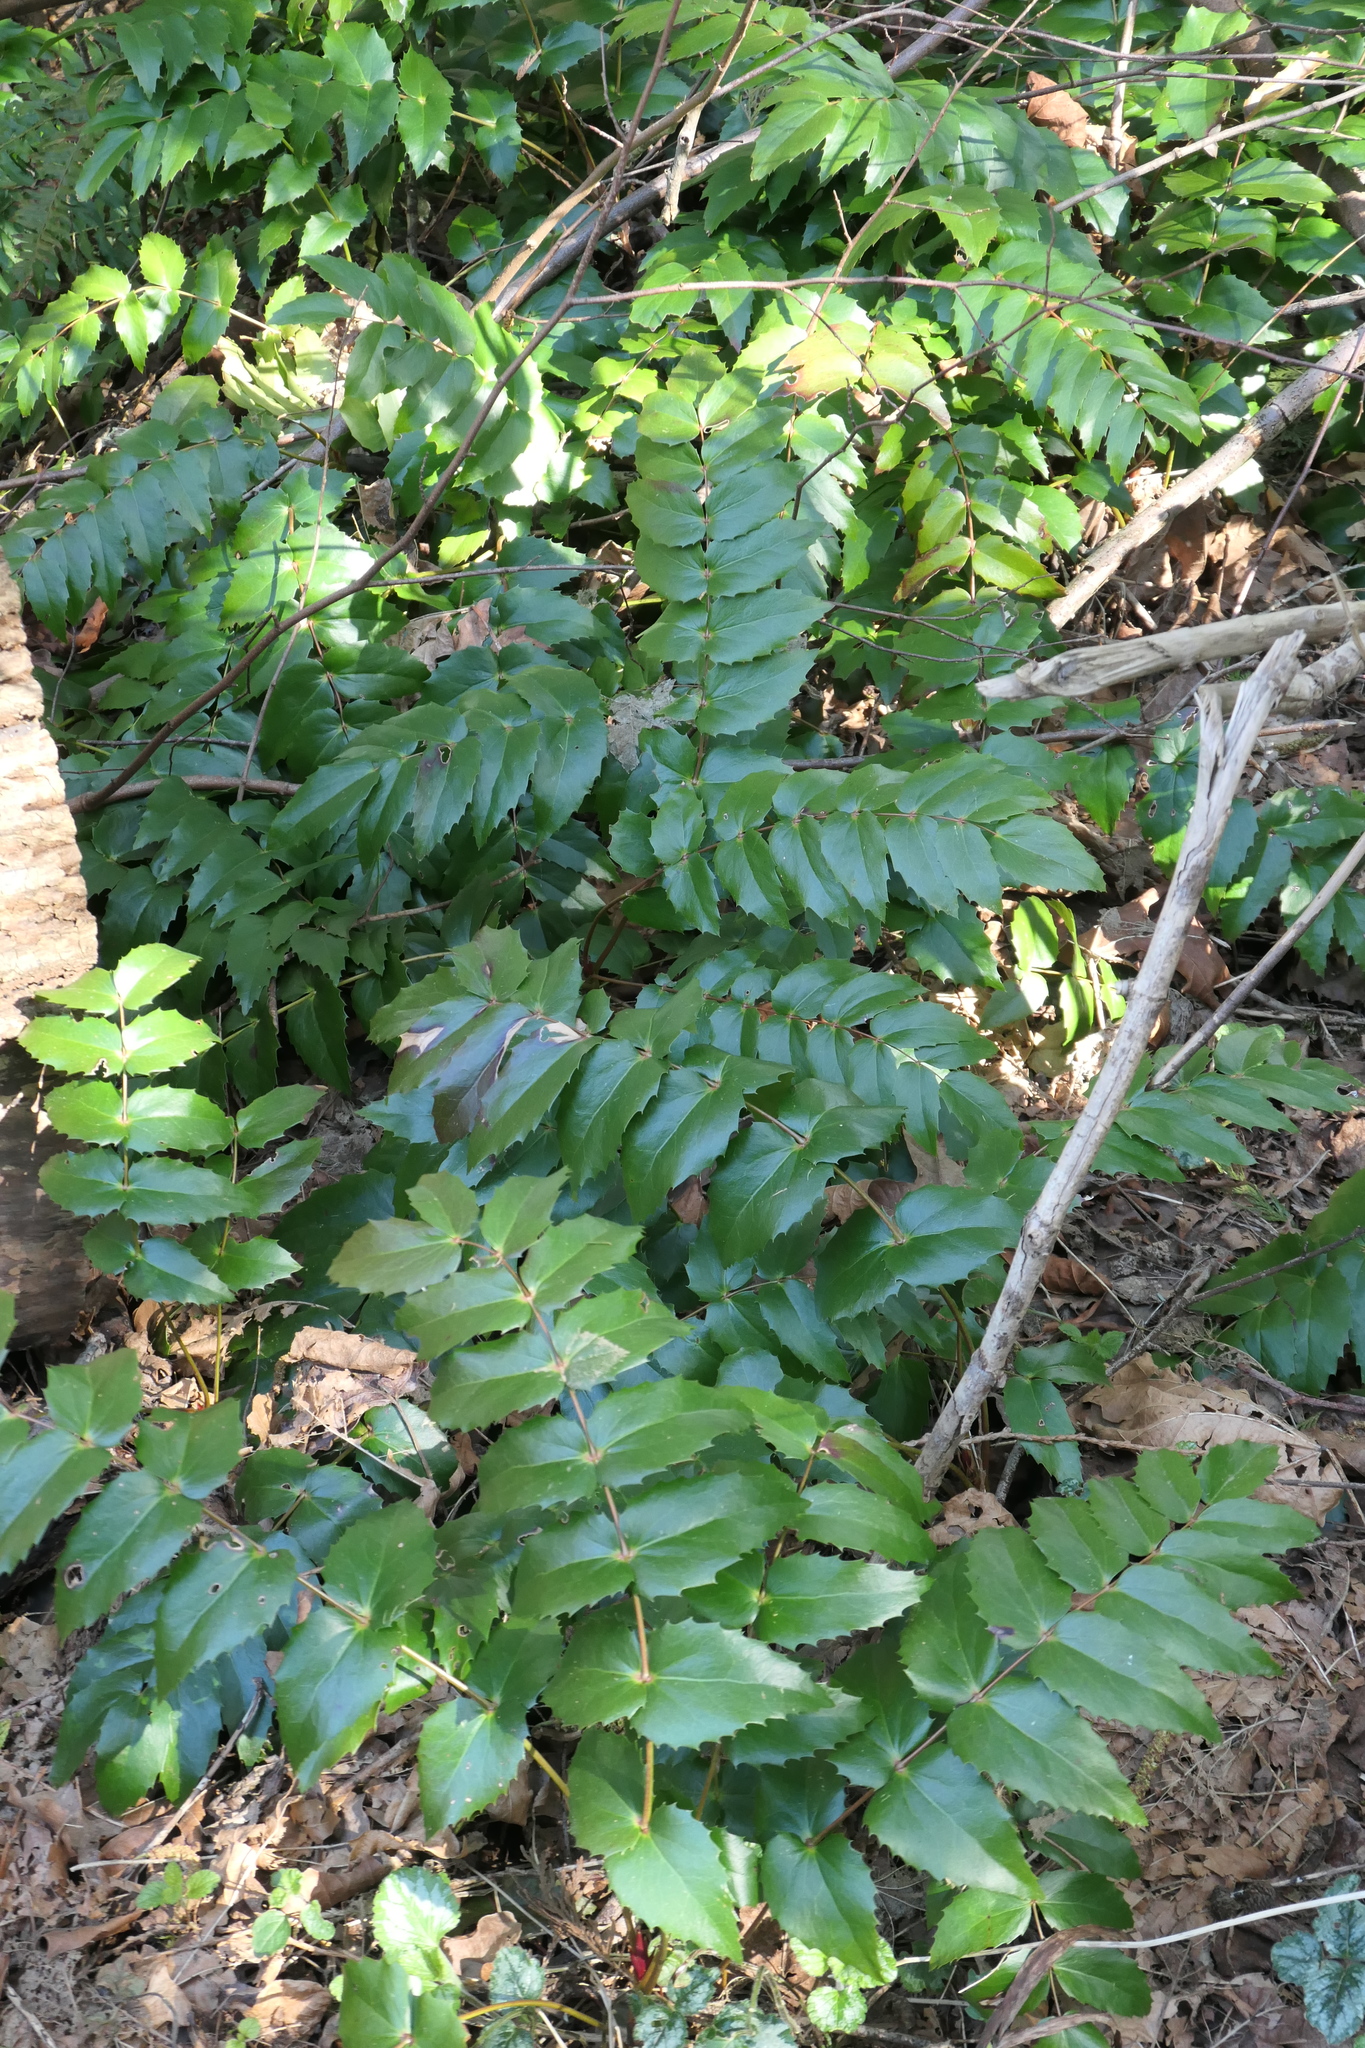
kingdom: Plantae
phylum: Tracheophyta
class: Magnoliopsida
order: Ranunculales
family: Berberidaceae
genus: Mahonia
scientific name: Mahonia nervosa
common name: Cascade oregon-grape
